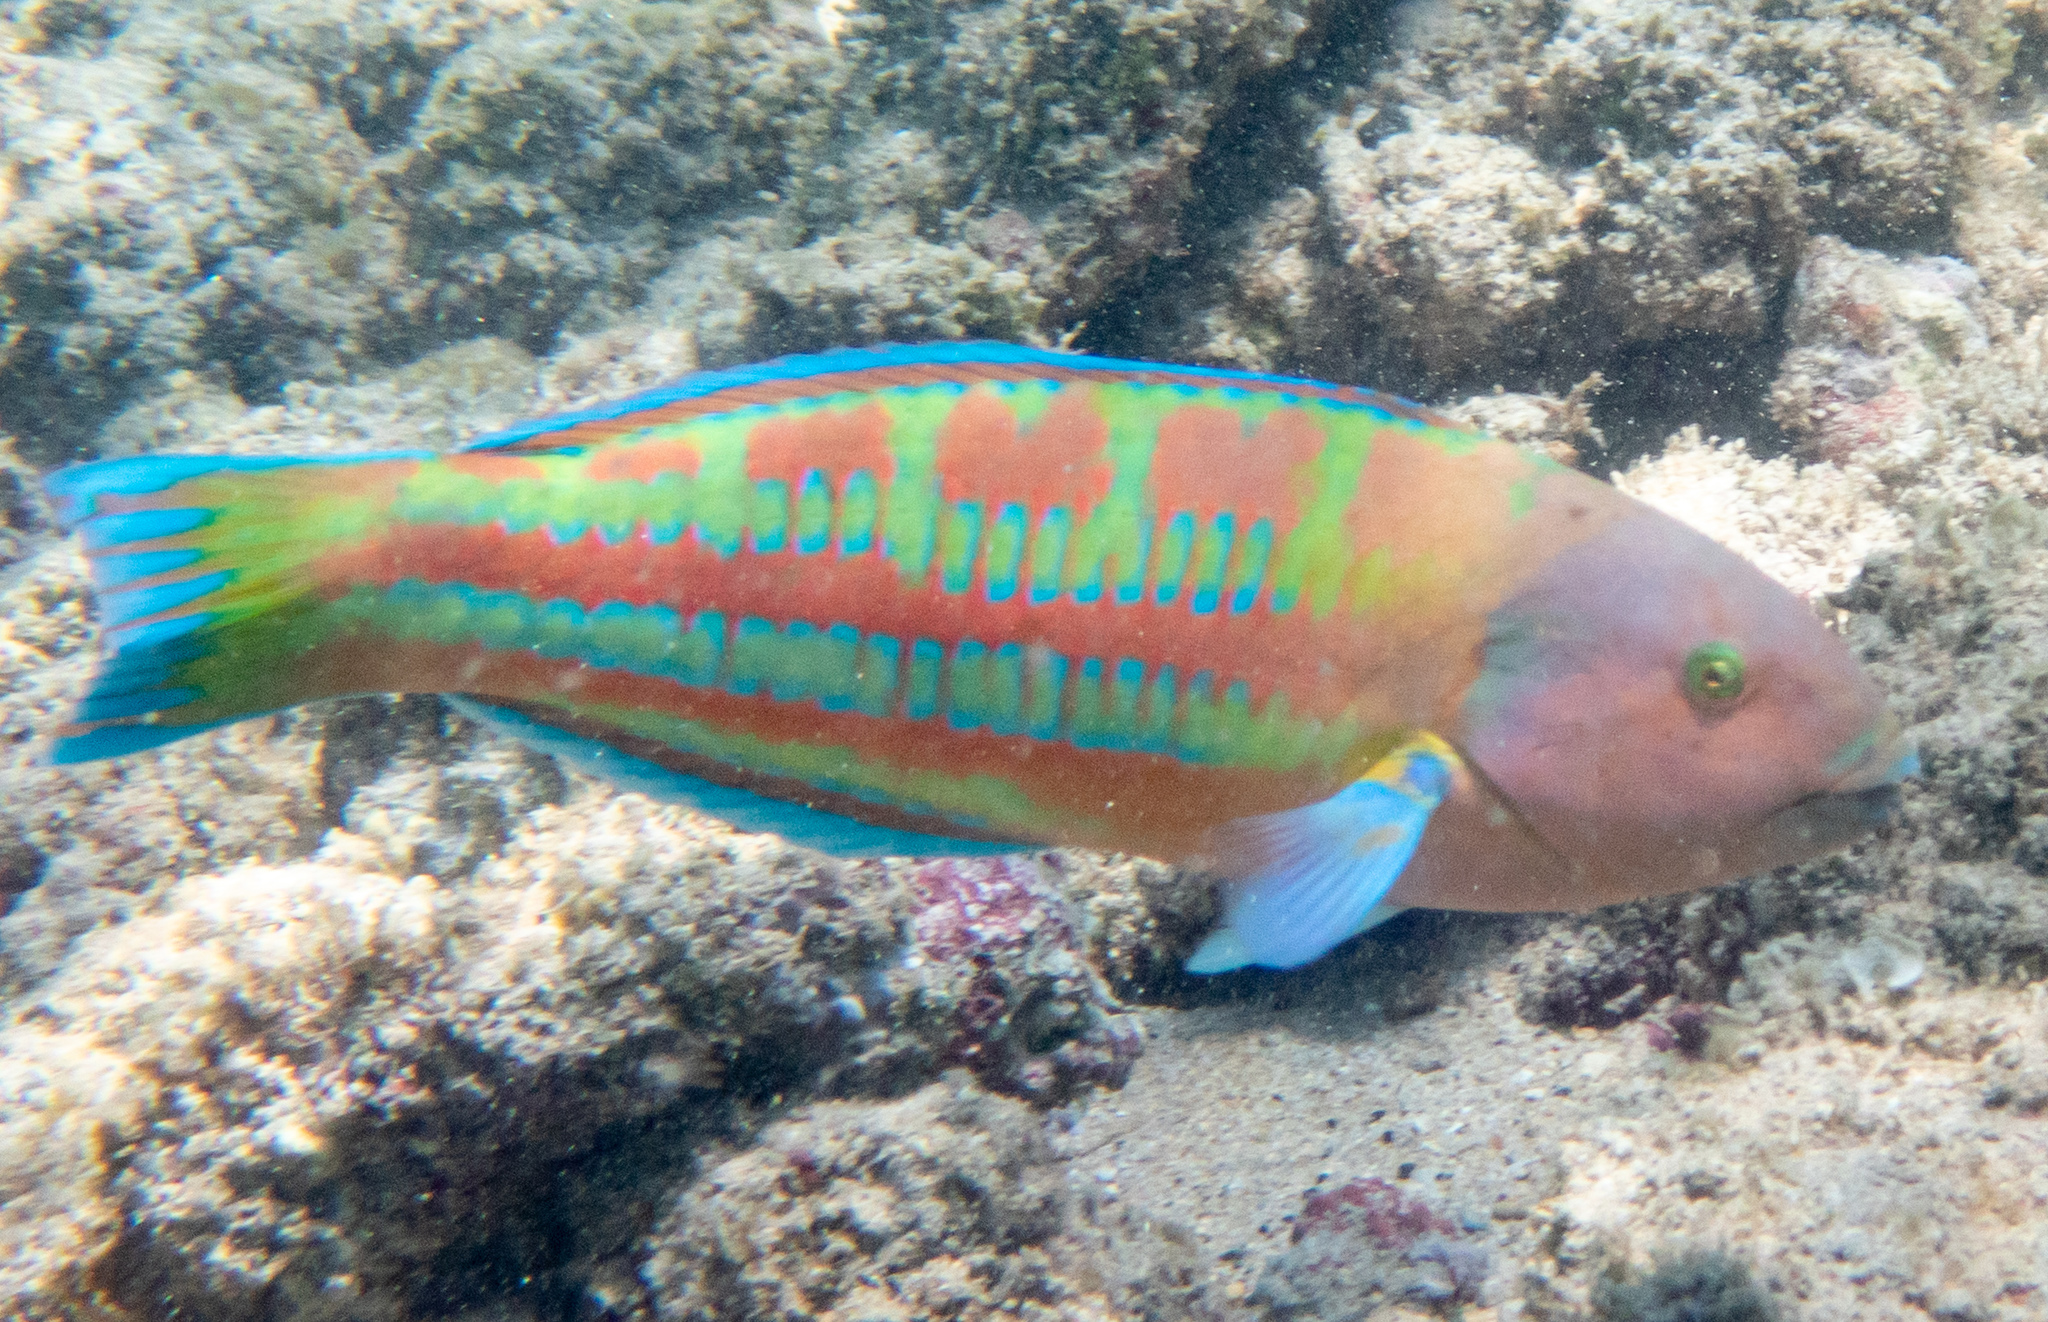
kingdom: Animalia
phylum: Chordata
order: Perciformes
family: Labridae
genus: Thalassoma
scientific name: Thalassoma trilobatum
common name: Christmas wrasse
